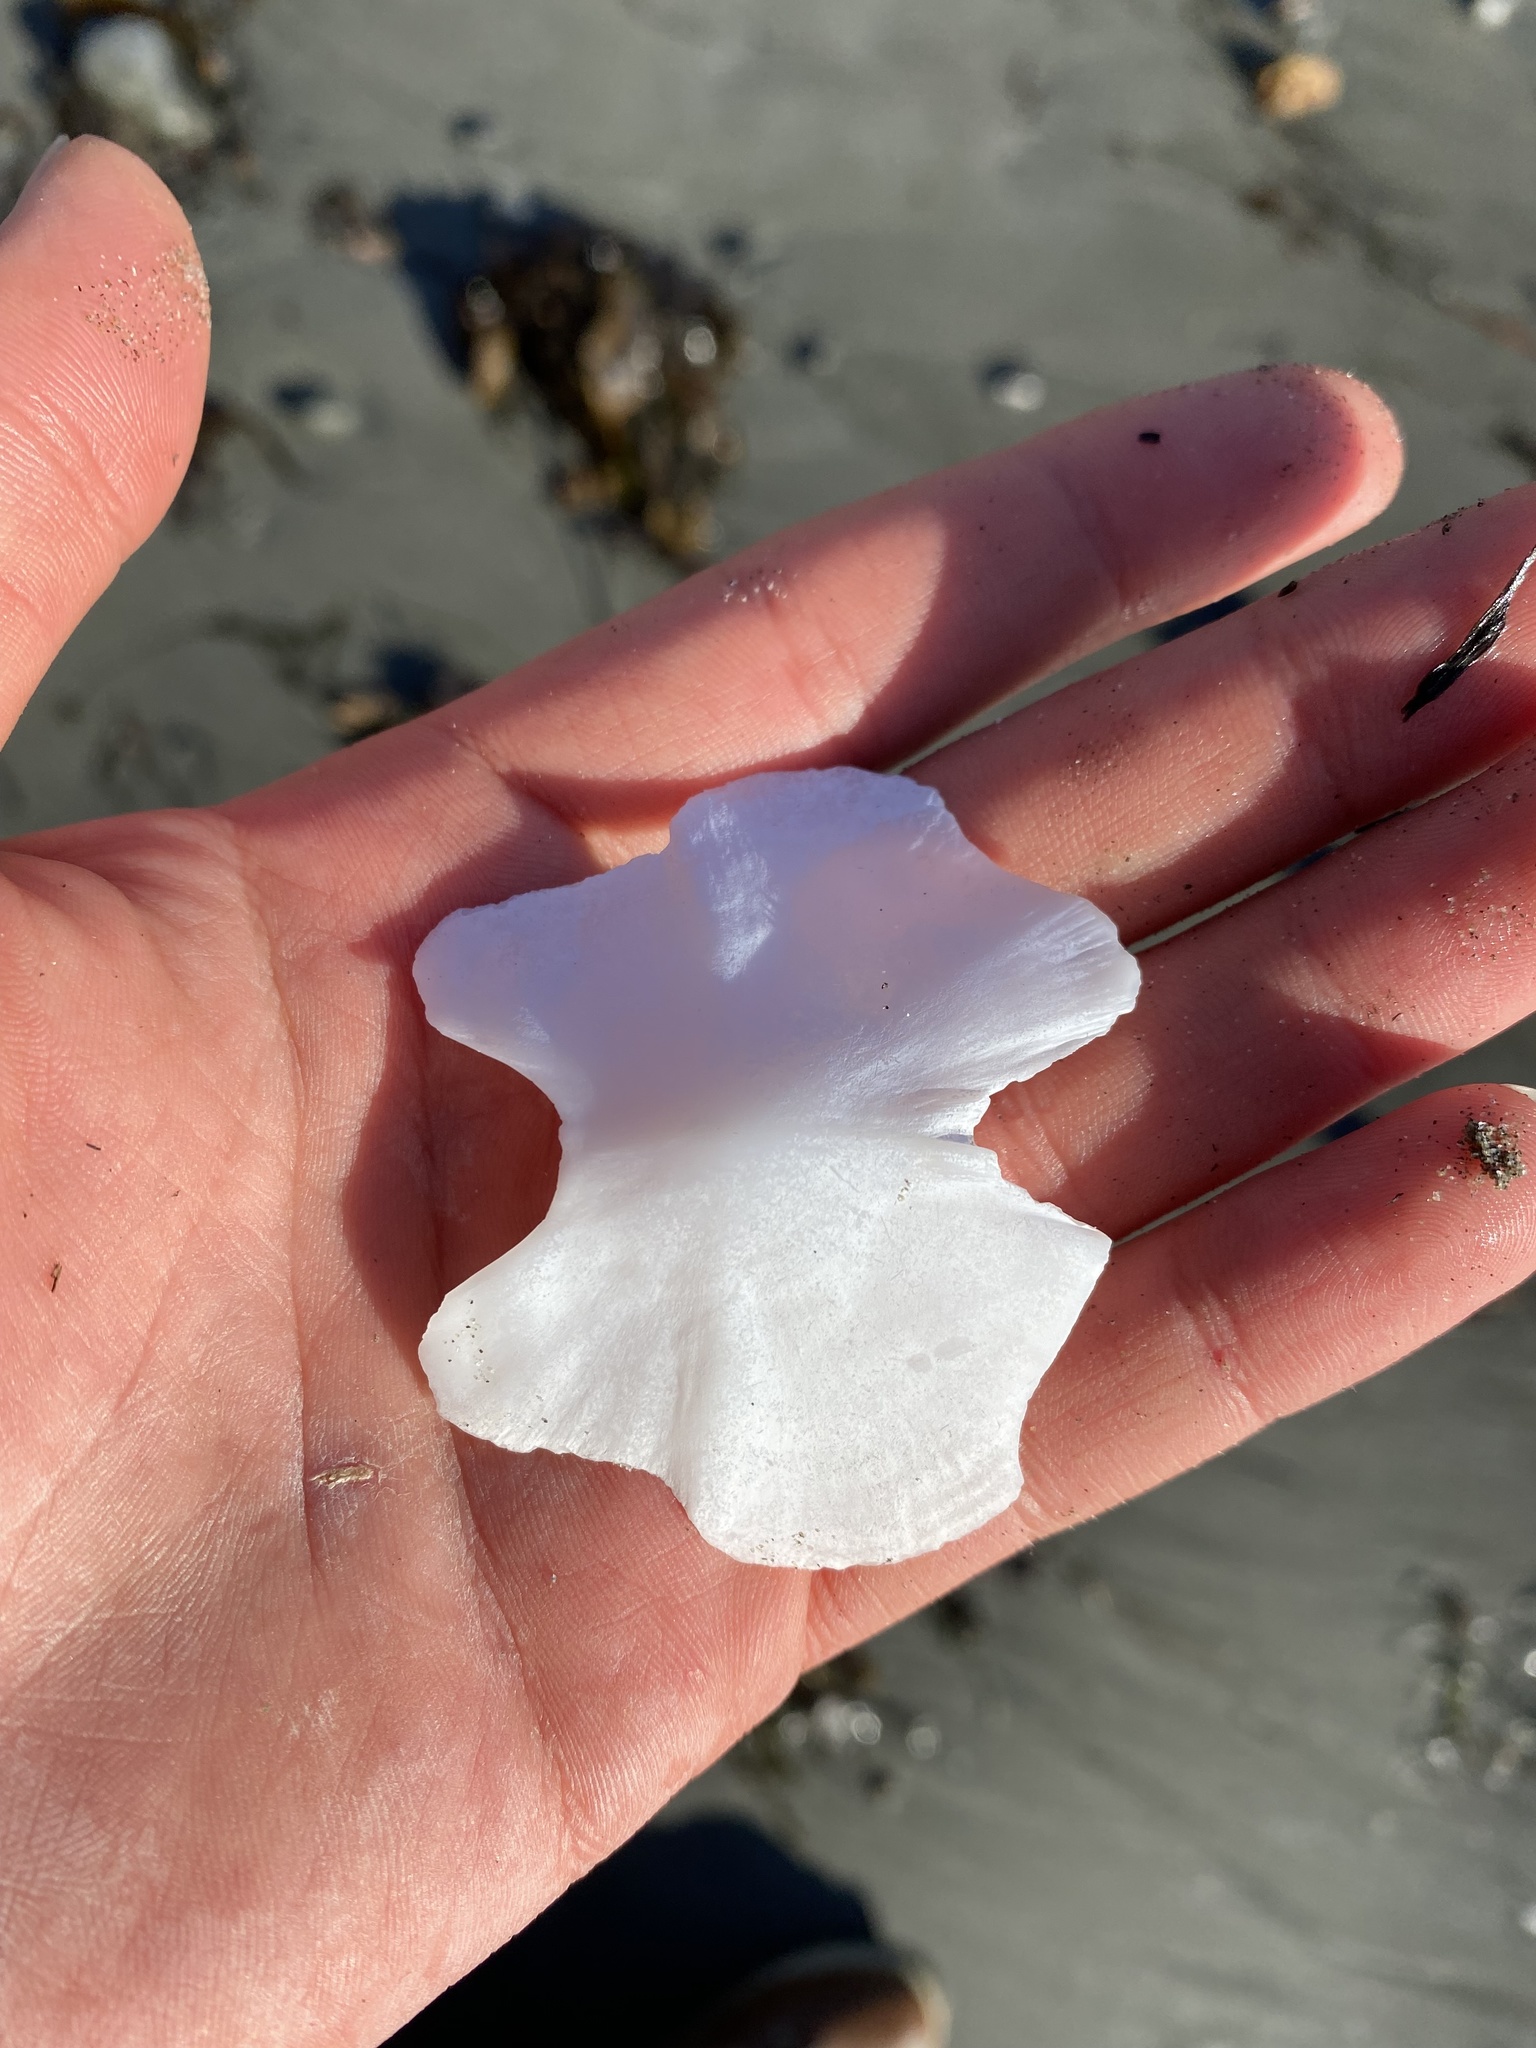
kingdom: Animalia
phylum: Mollusca
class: Polyplacophora
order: Chitonida
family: Acanthochitonidae
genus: Cryptochiton
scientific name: Cryptochiton stelleri
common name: Giant pacific chiton
